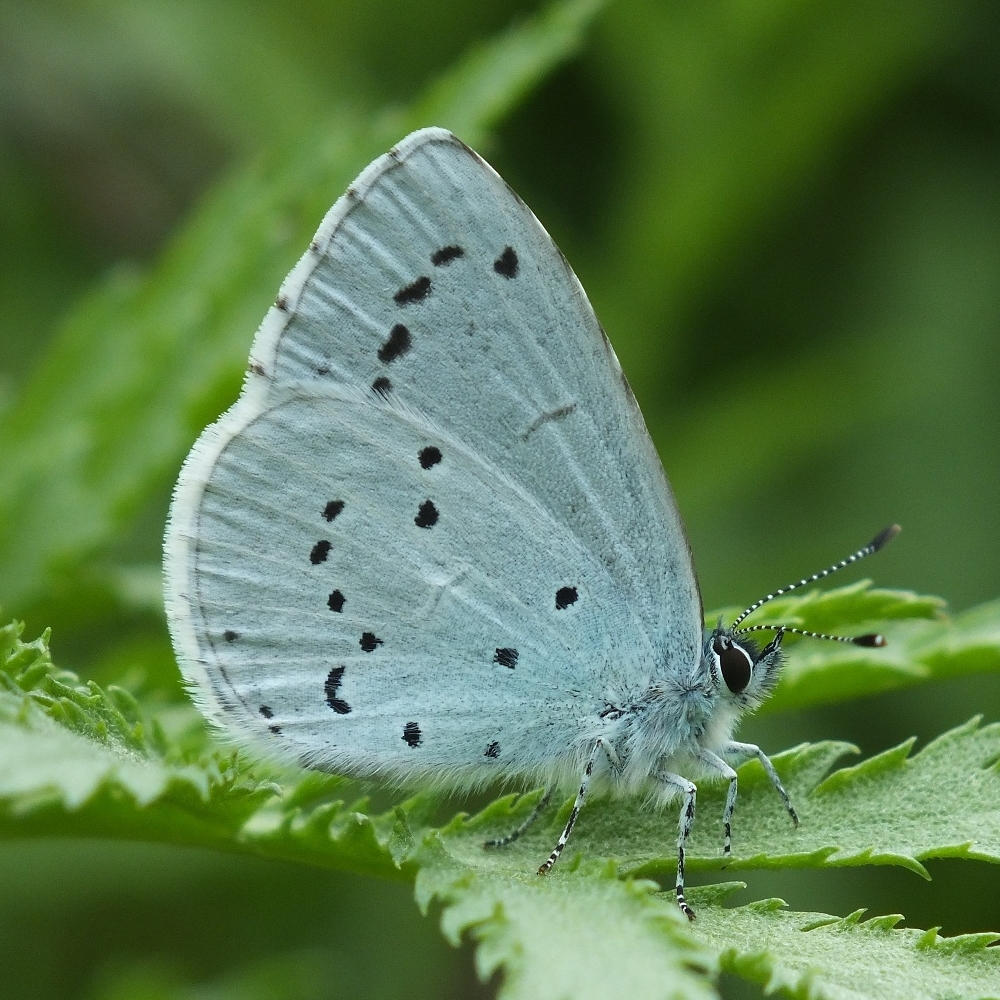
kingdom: Animalia
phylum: Arthropoda
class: Insecta
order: Lepidoptera
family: Lycaenidae
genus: Celastrina
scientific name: Celastrina argiolus
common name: Holly blue
